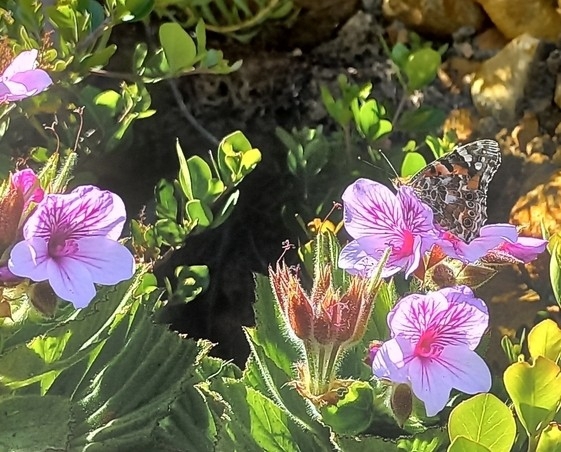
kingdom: Plantae
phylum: Tracheophyta
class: Magnoliopsida
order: Geraniales
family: Geraniaceae
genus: Pelargonium
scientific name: Pelargonium cucullatum
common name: Tree pelargonium
